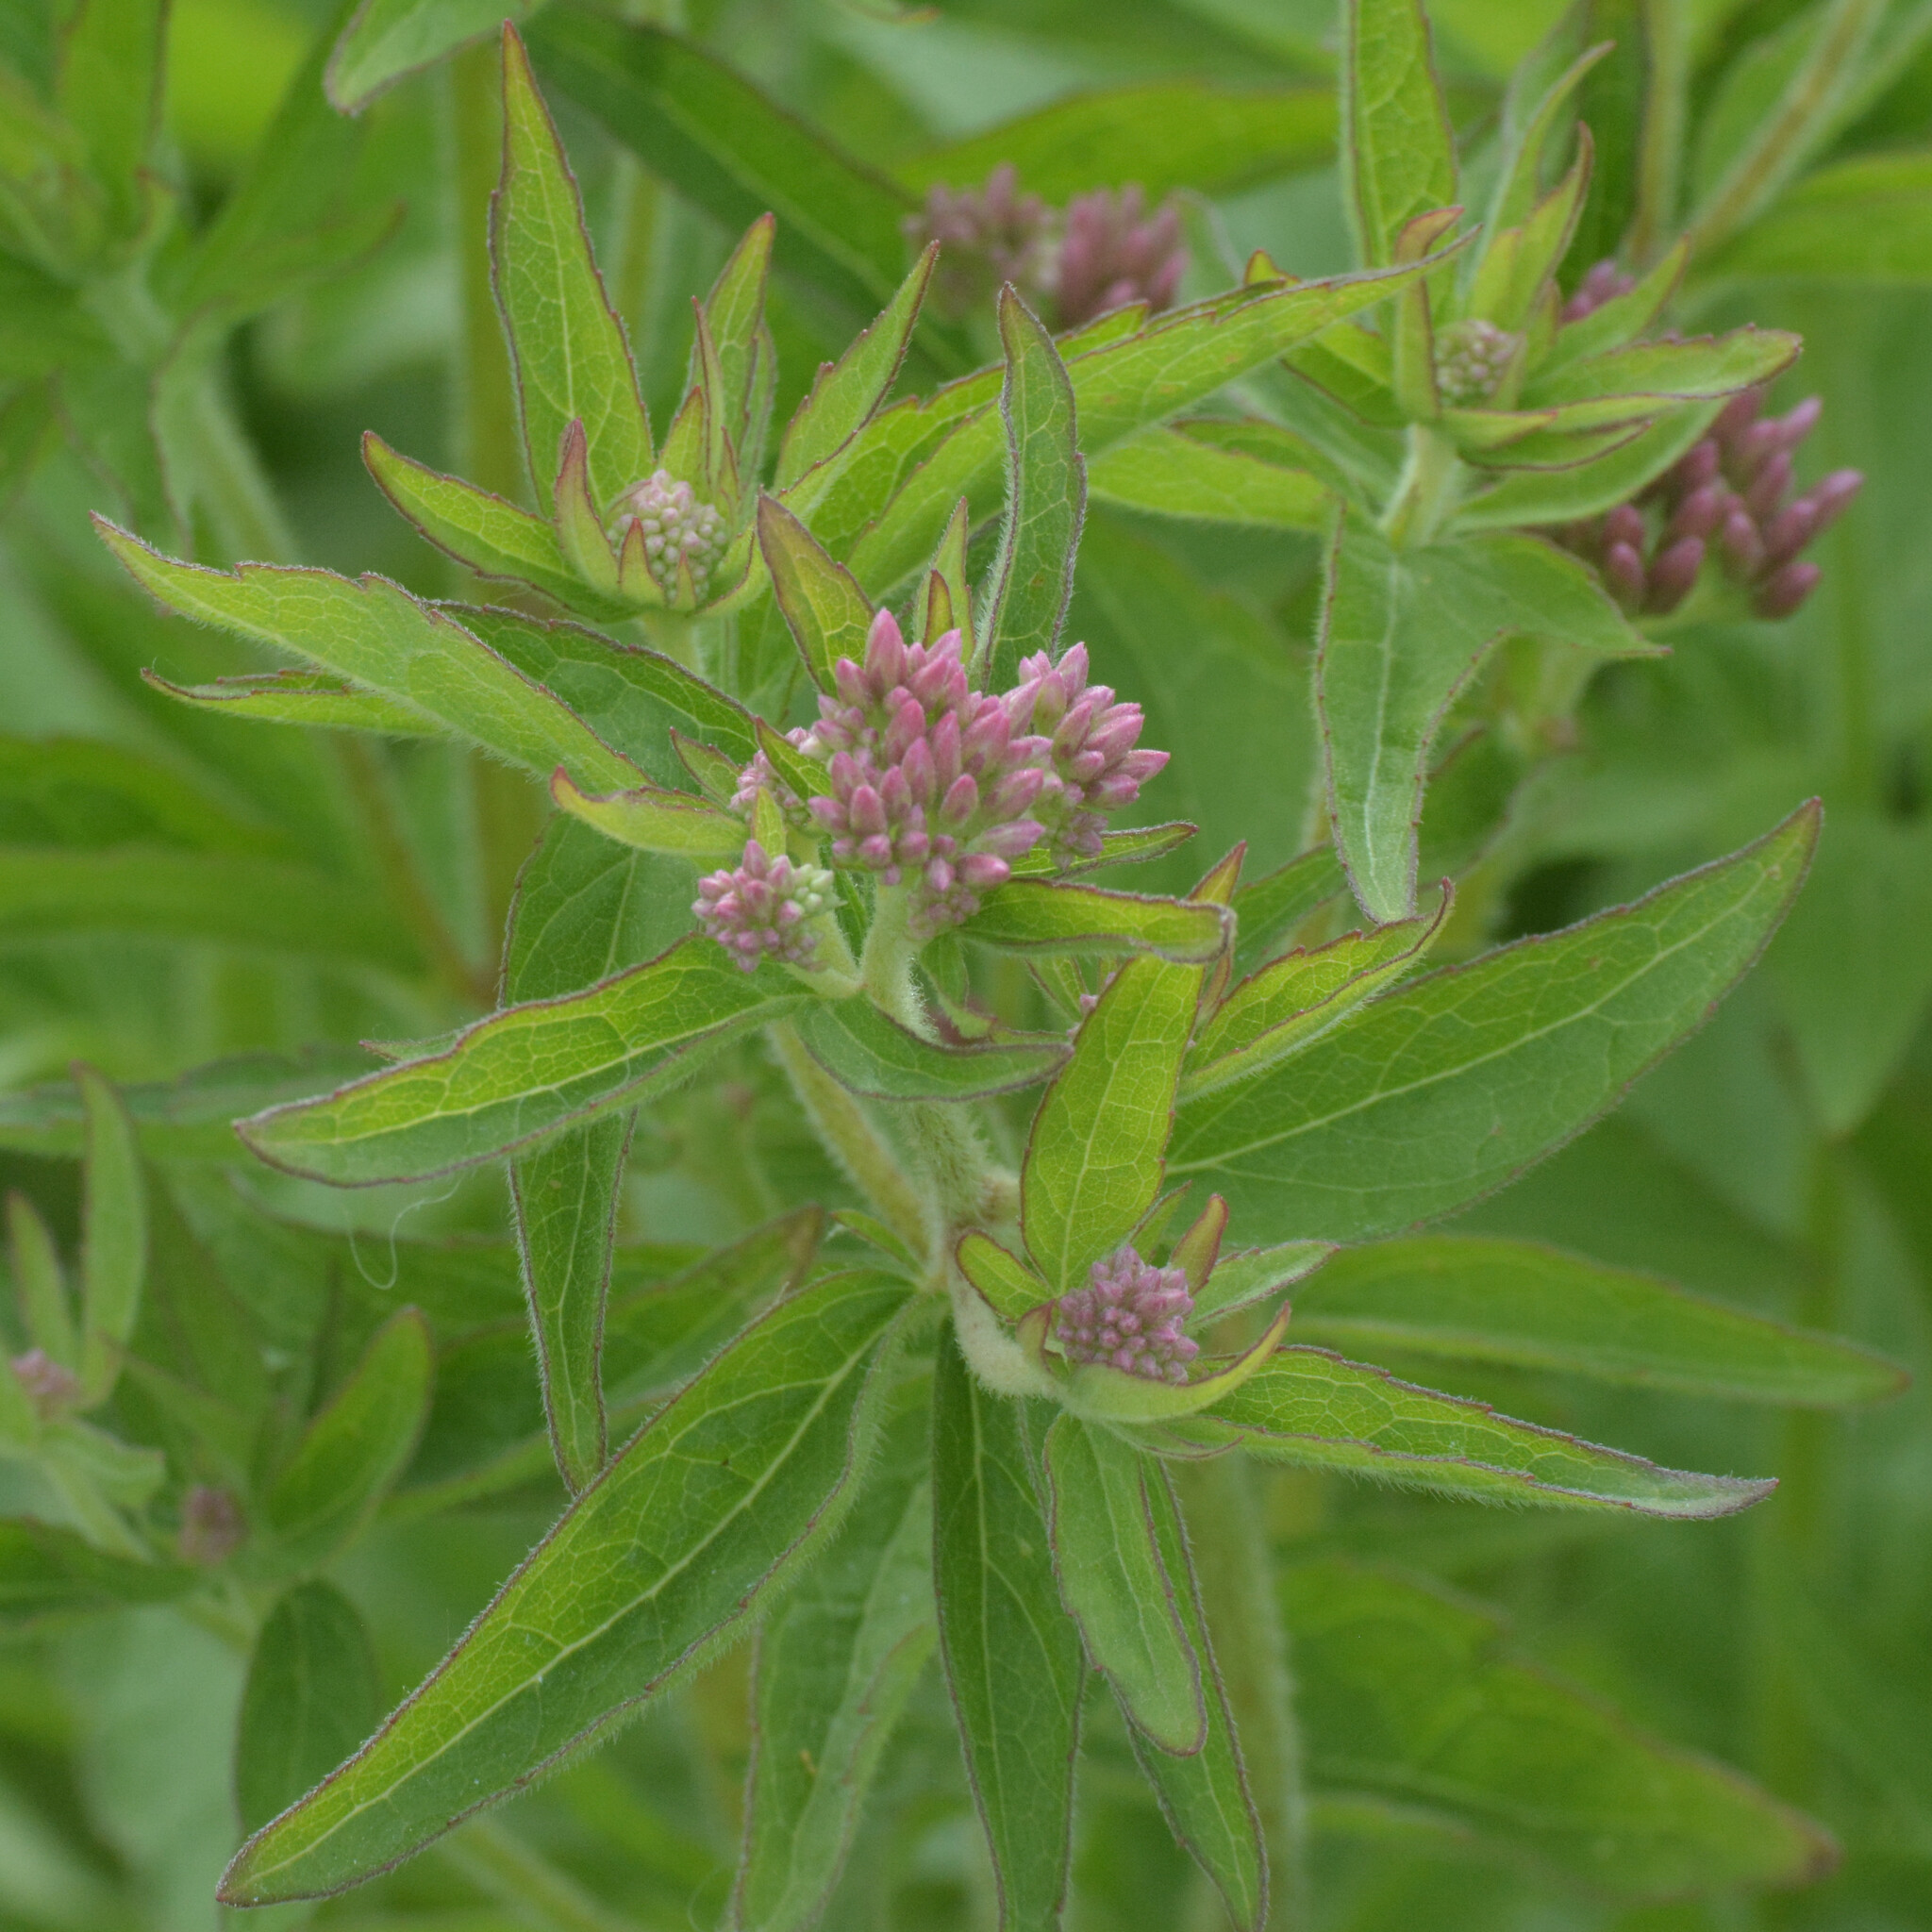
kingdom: Plantae
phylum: Tracheophyta
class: Magnoliopsida
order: Asterales
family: Asteraceae
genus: Eupatorium
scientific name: Eupatorium cannabinum
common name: Hemp-agrimony
